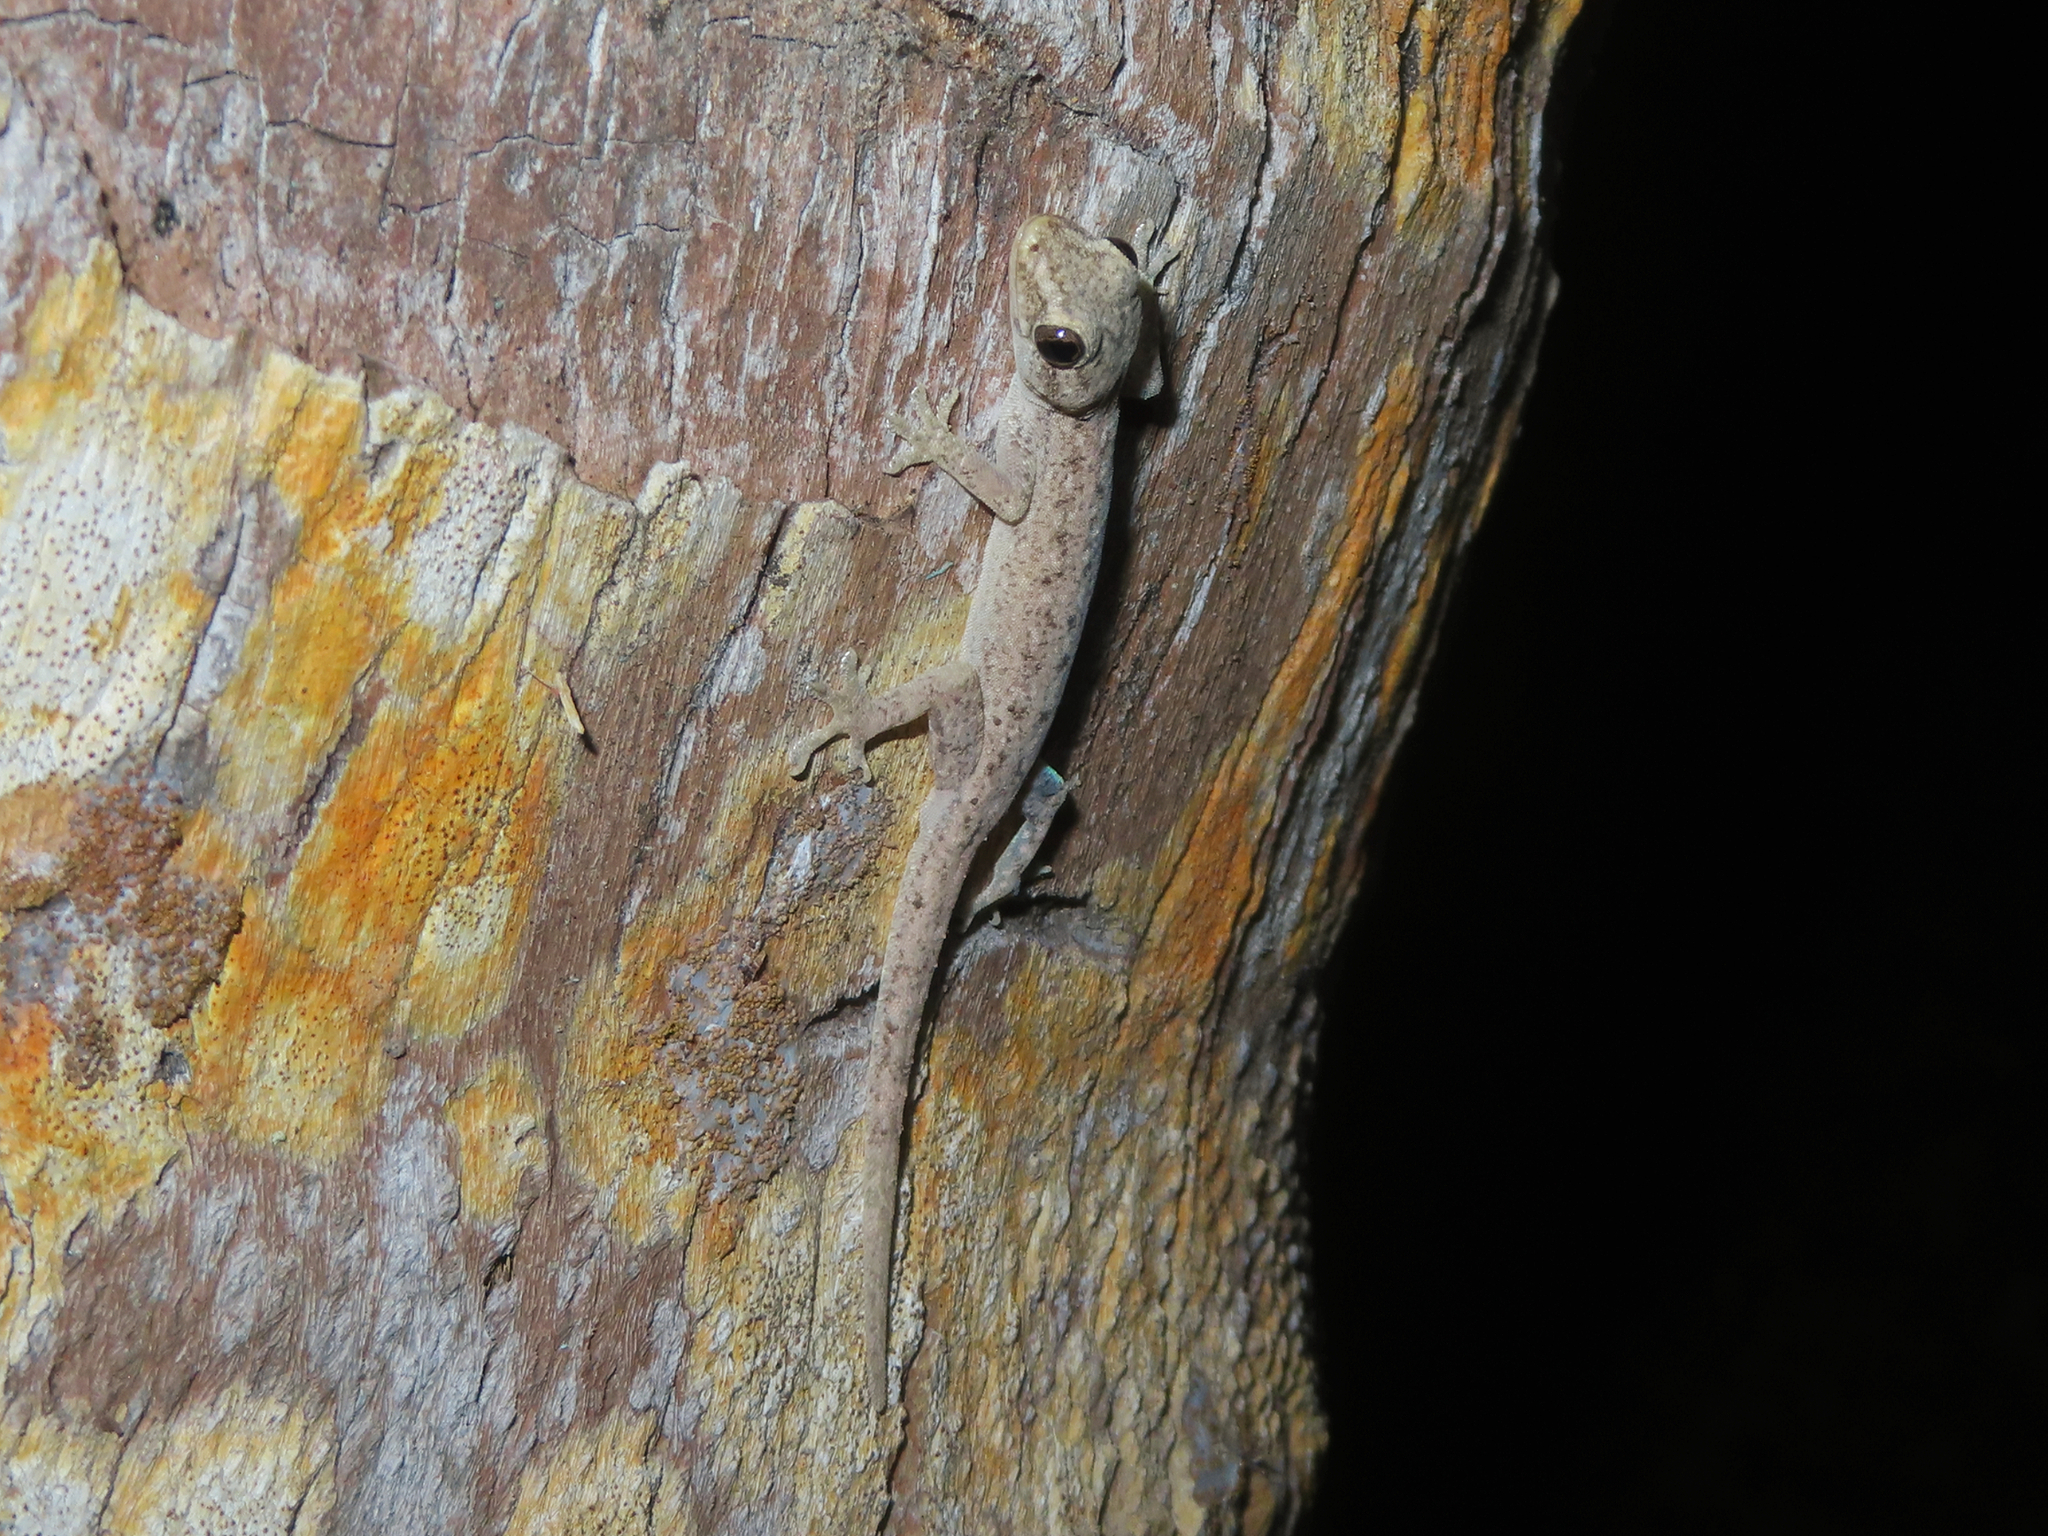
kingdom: Animalia
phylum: Chordata
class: Squamata
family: Gekkonidae
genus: Hemidactylus
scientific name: Hemidactylus frenatus
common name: Common house gecko
